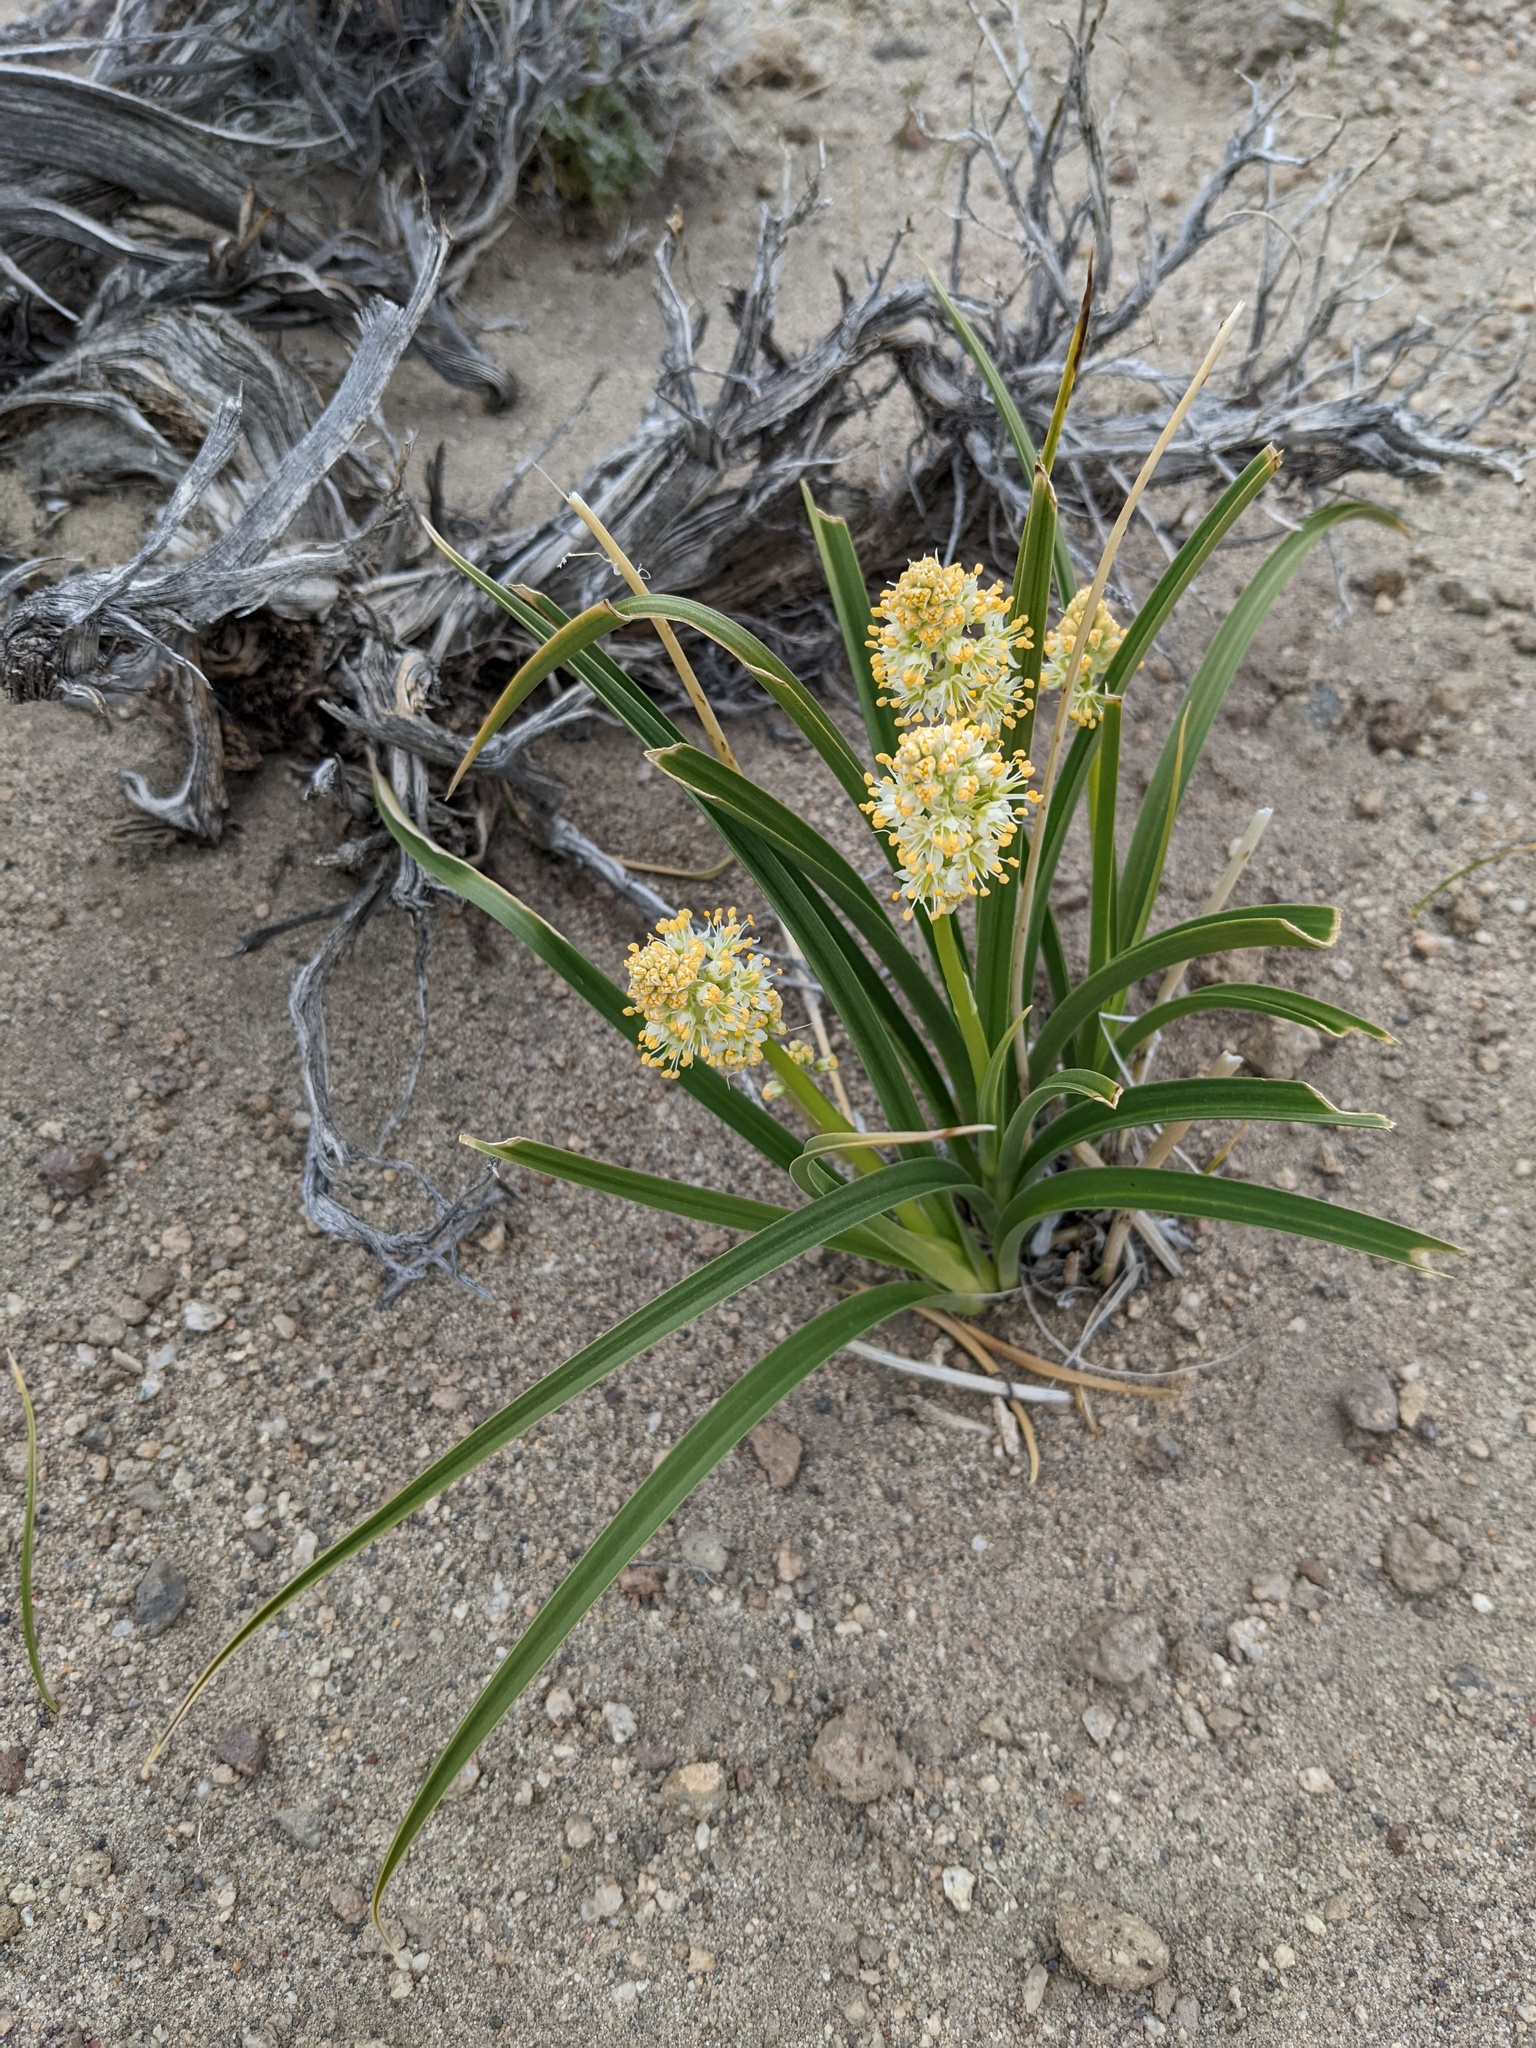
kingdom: Plantae
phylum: Tracheophyta
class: Liliopsida
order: Liliales
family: Melanthiaceae
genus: Toxicoscordion
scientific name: Toxicoscordion paniculatum
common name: Foothill death camas
